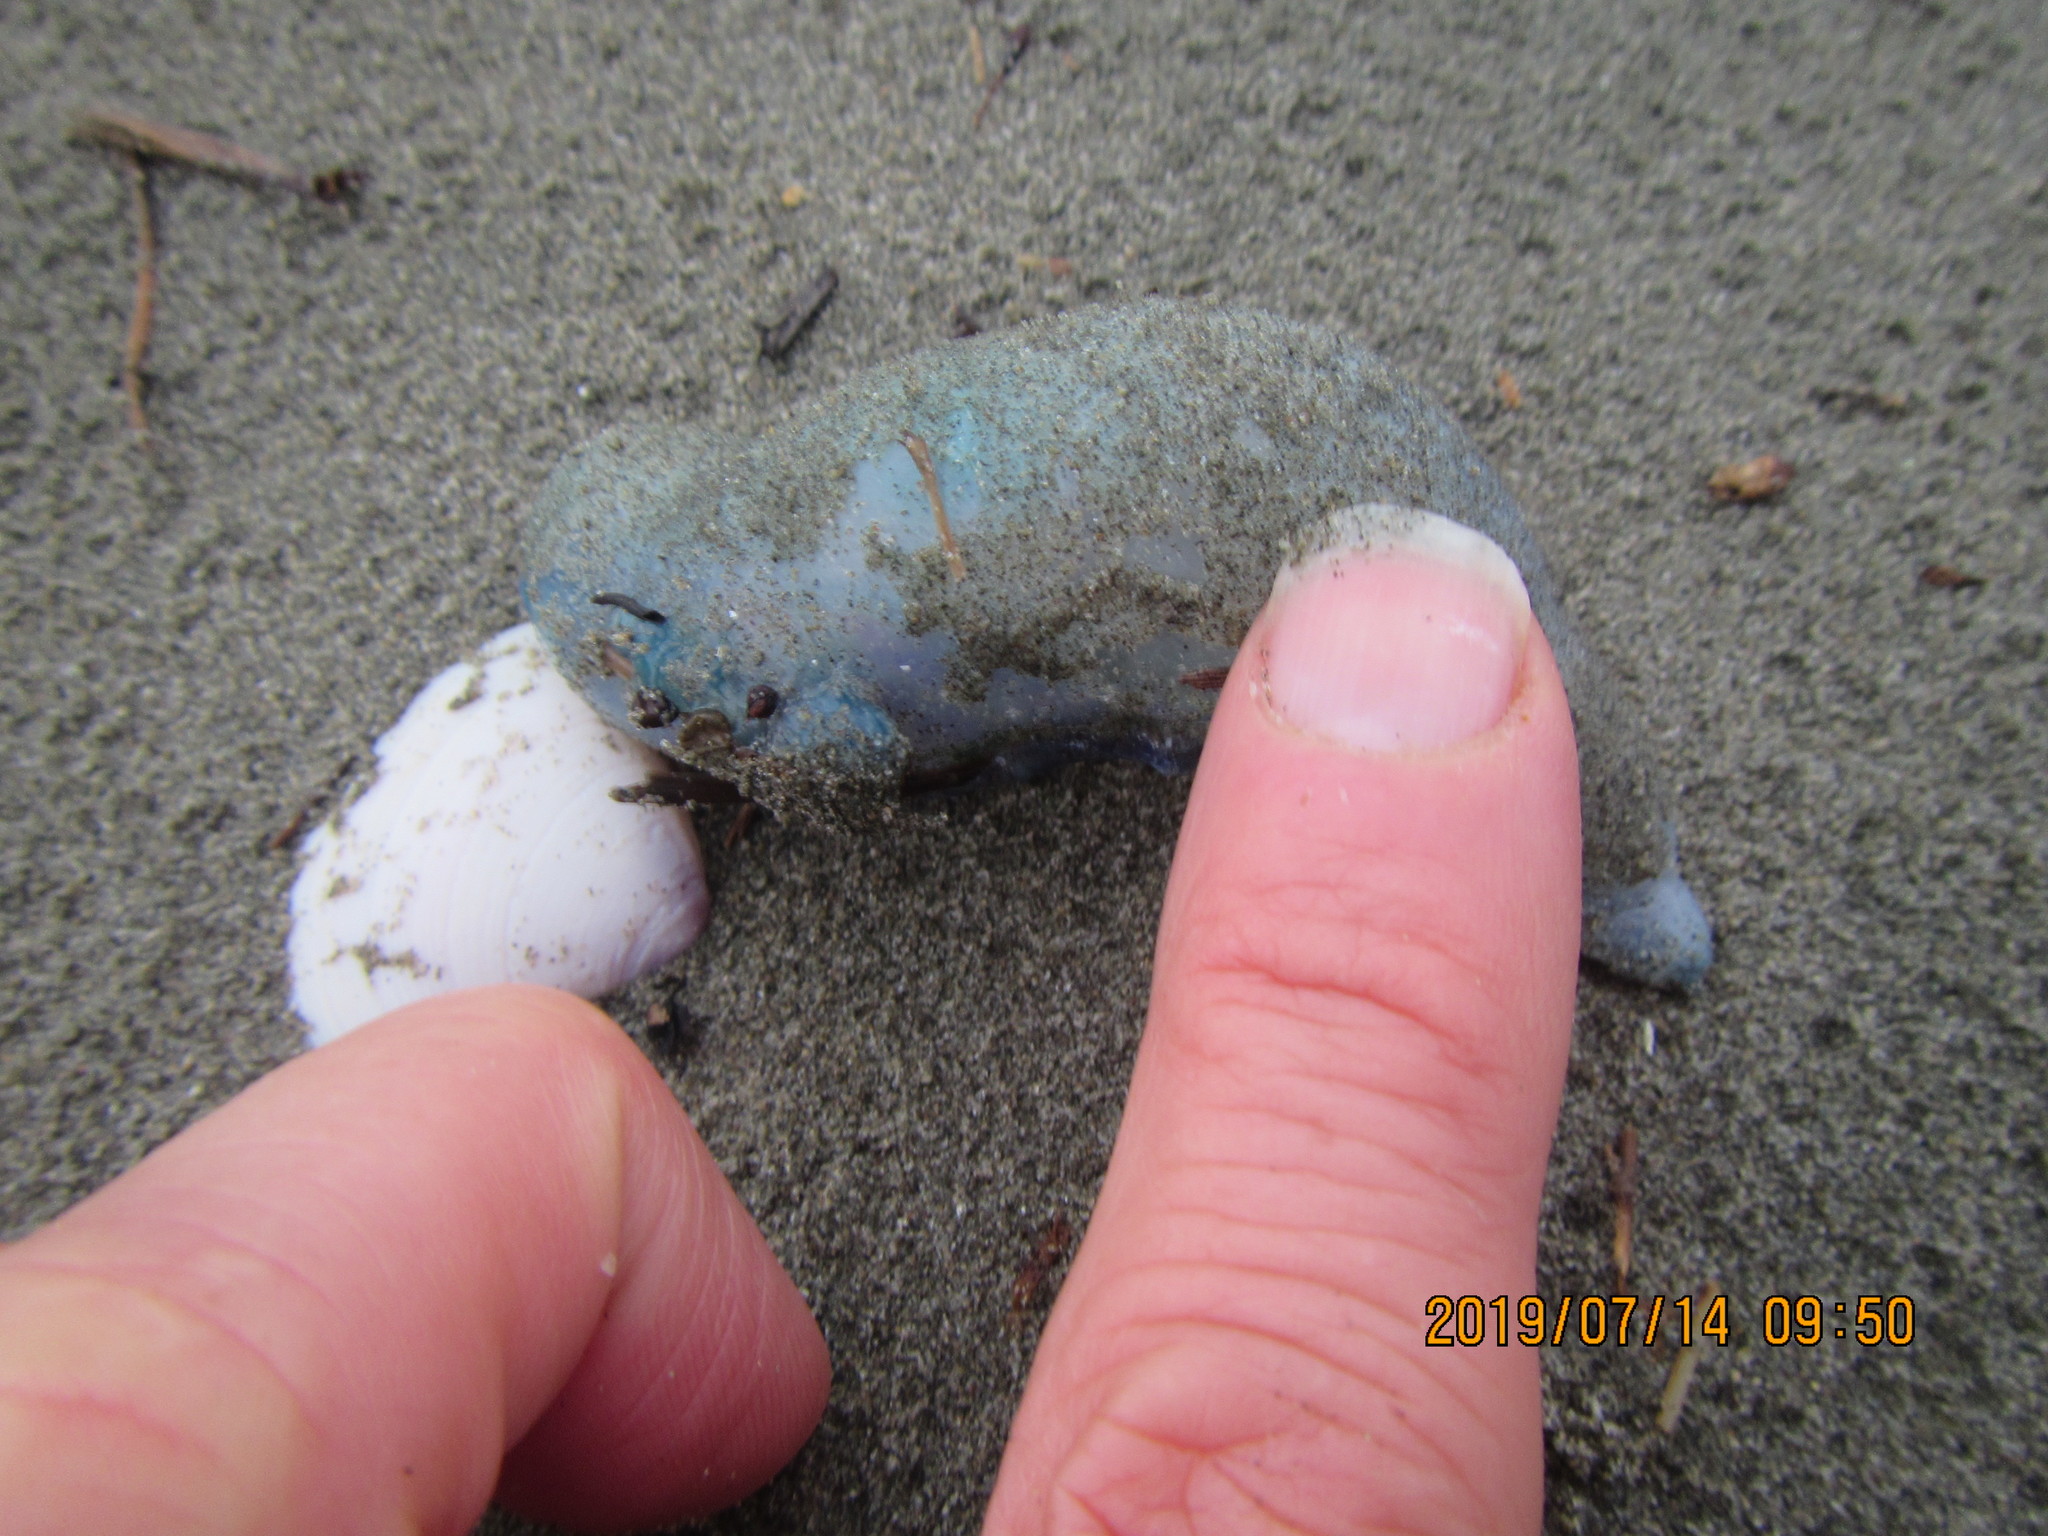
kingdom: Animalia
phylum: Cnidaria
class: Hydrozoa
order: Siphonophorae
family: Physaliidae
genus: Physalia
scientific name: Physalia physalis
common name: Portuguese man-of-war
